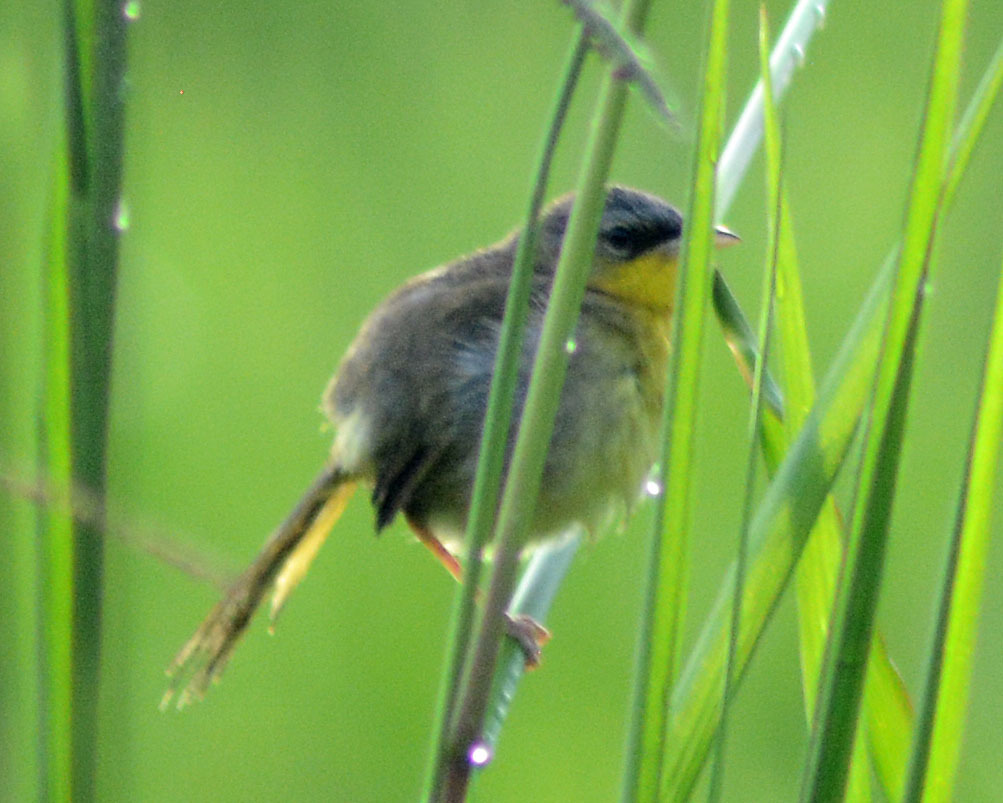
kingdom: Animalia
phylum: Chordata
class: Aves
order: Passeriformes
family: Parulidae
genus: Geothlypis
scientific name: Geothlypis poliocephala
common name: Gray-crowned yellowthroat
